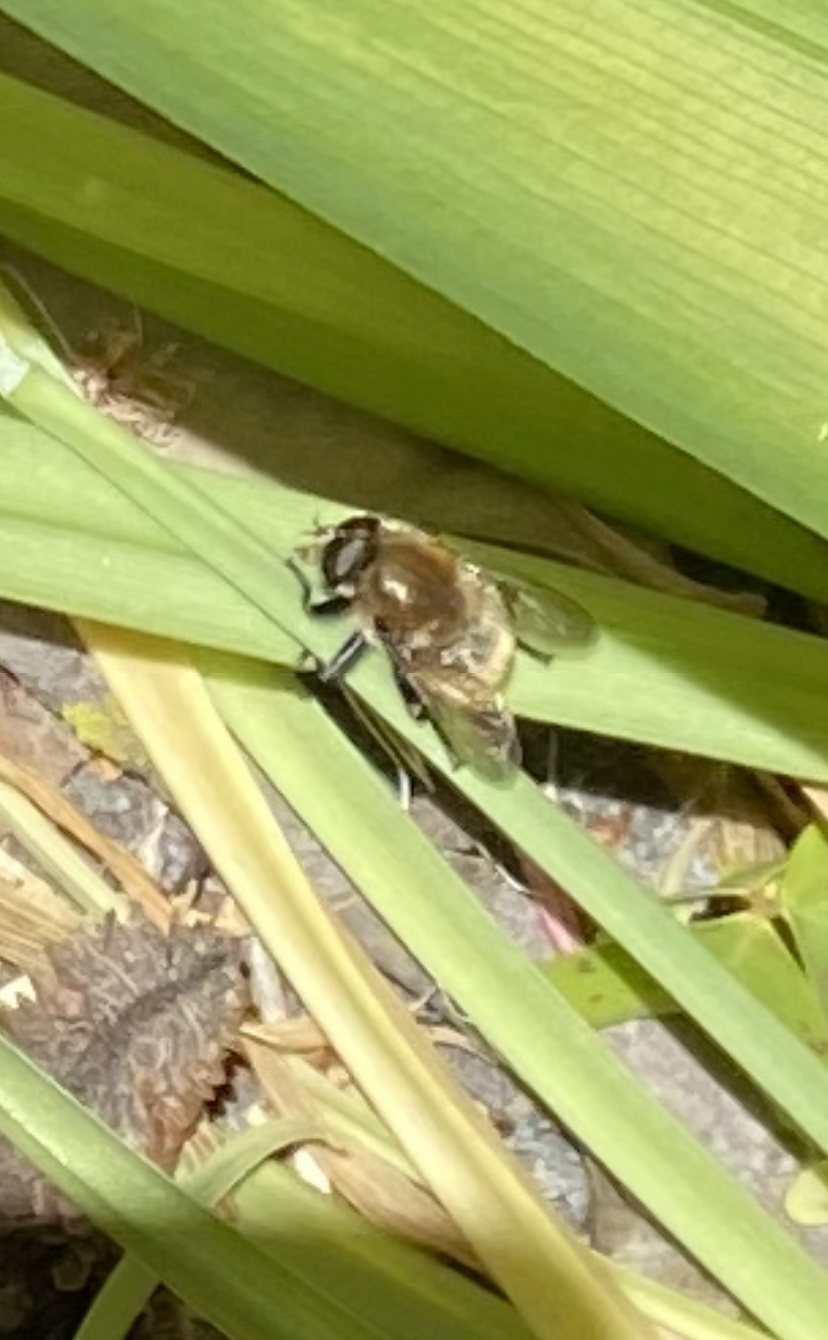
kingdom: Animalia
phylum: Arthropoda
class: Insecta
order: Diptera
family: Syrphidae
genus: Merodon
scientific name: Merodon equestris
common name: Greater bulb-fly
